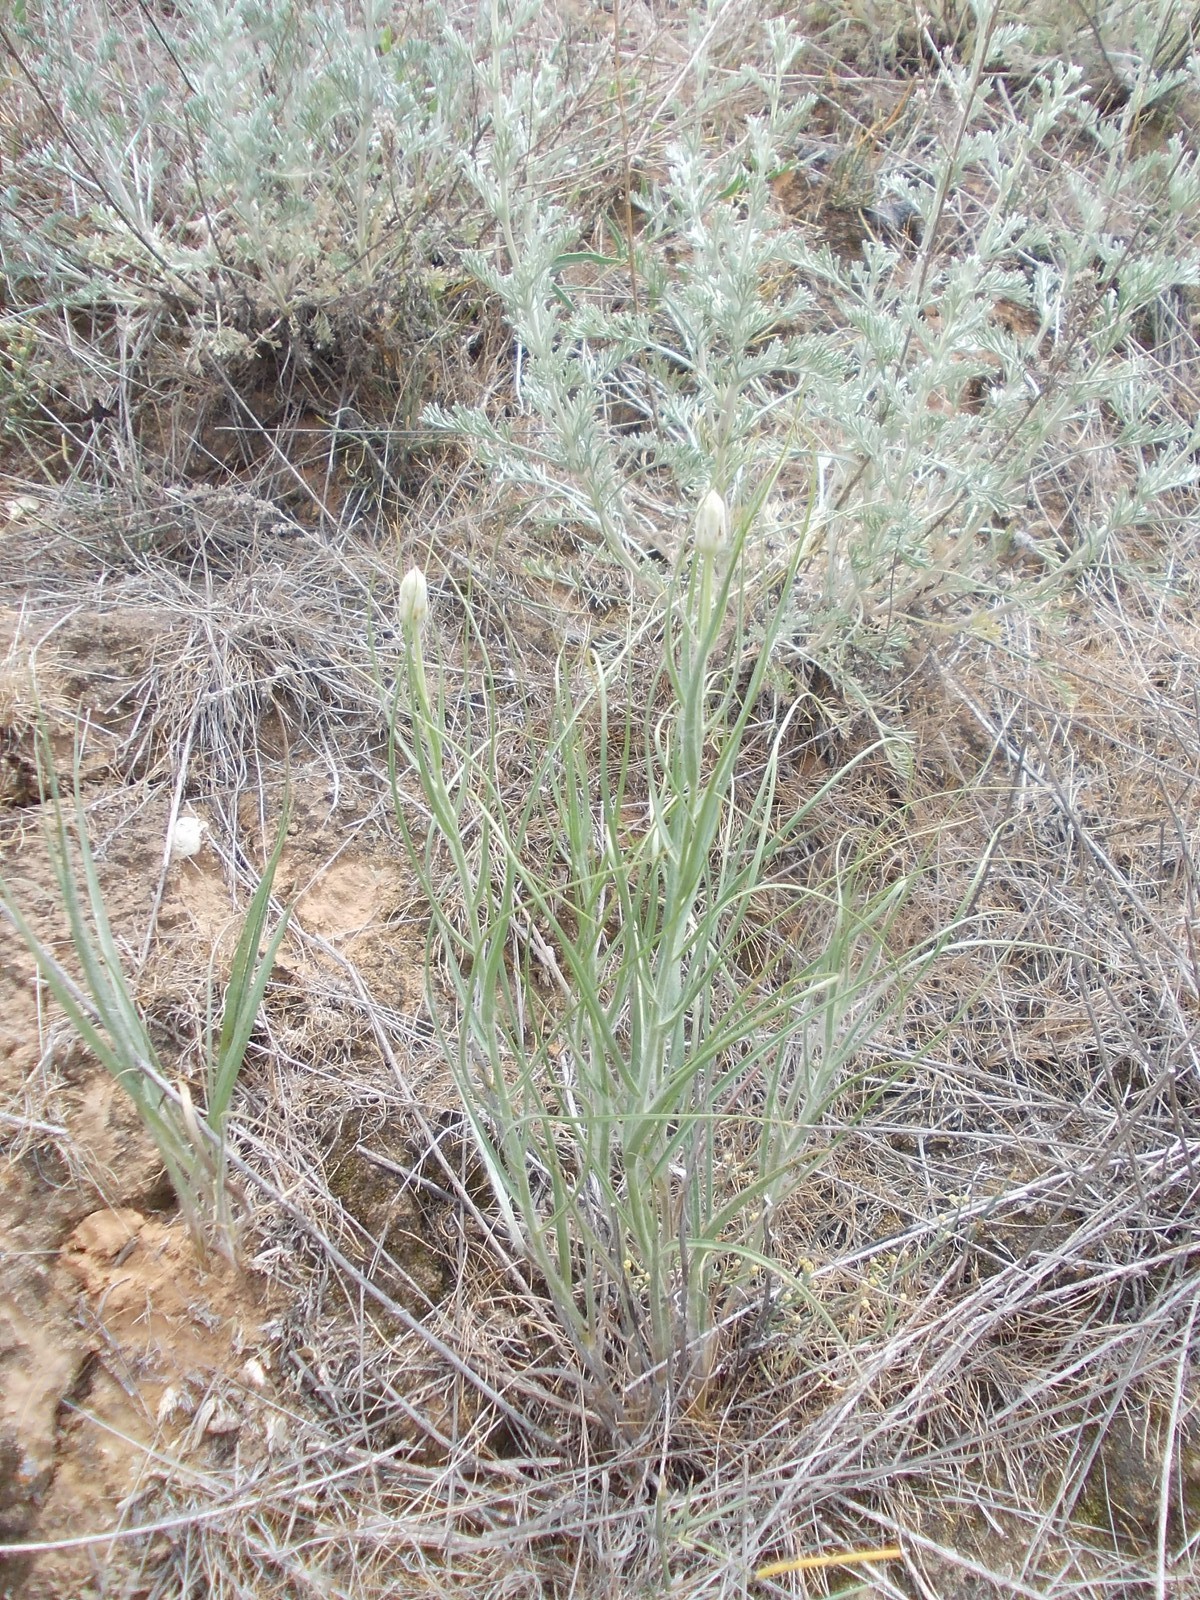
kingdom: Plantae
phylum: Tracheophyta
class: Magnoliopsida
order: Asterales
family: Asteraceae
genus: Gelasia
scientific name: Gelasia ensifolia
